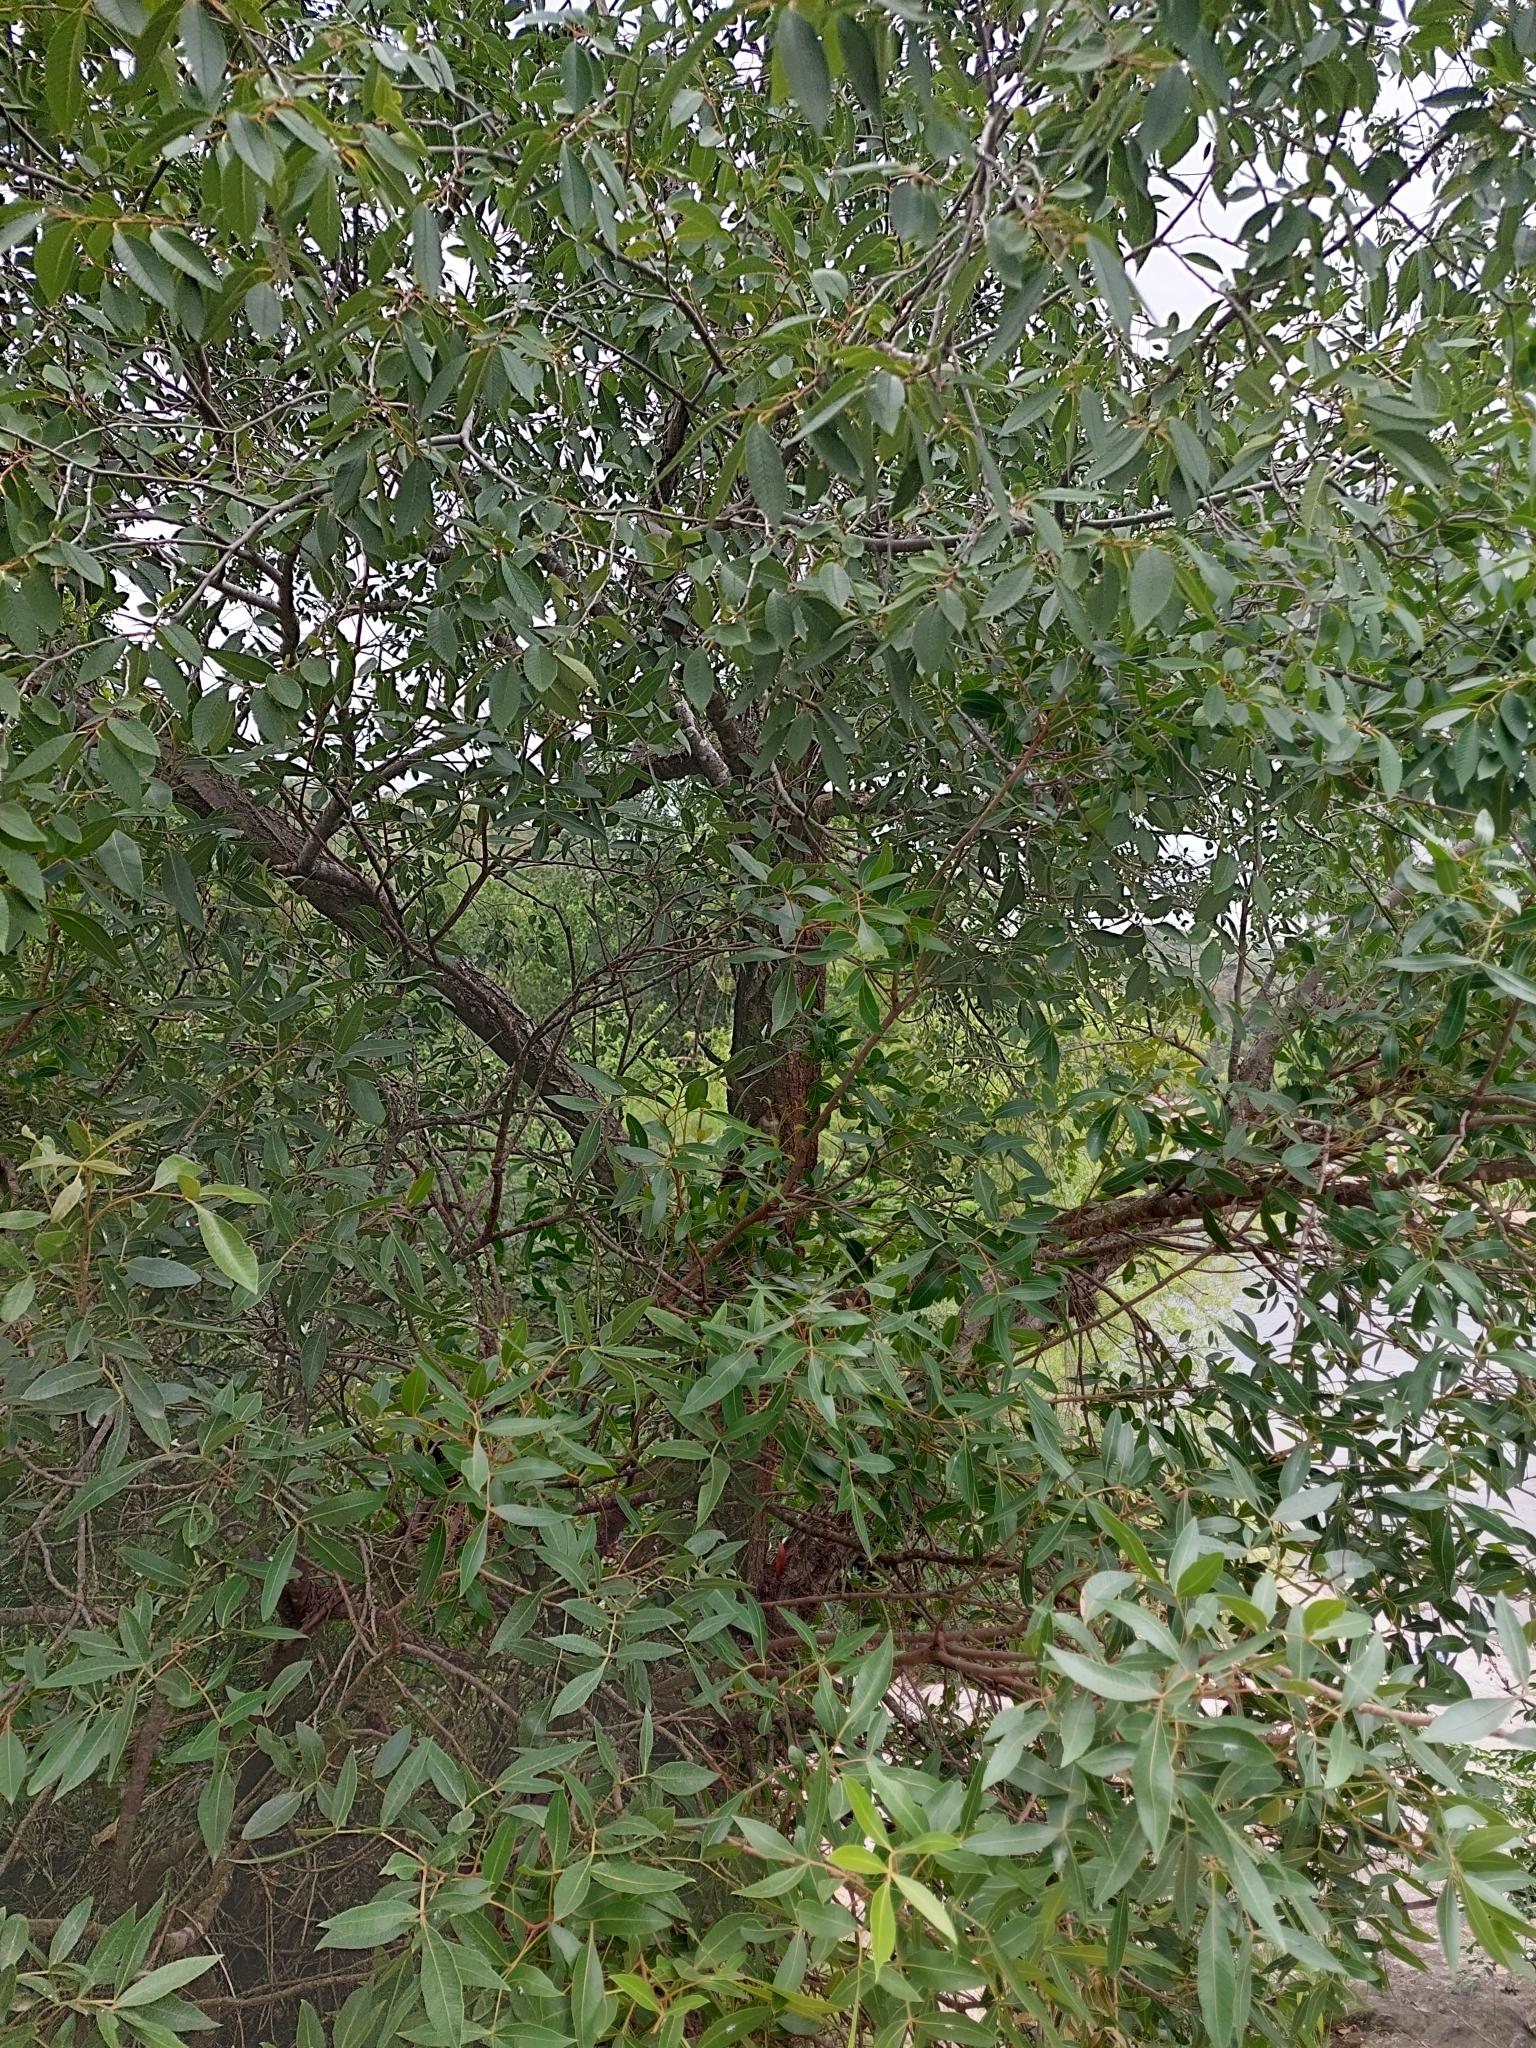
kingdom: Plantae
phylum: Tracheophyta
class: Magnoliopsida
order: Sapindales
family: Anacardiaceae
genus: Lithraea
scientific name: Lithraea molleoides
